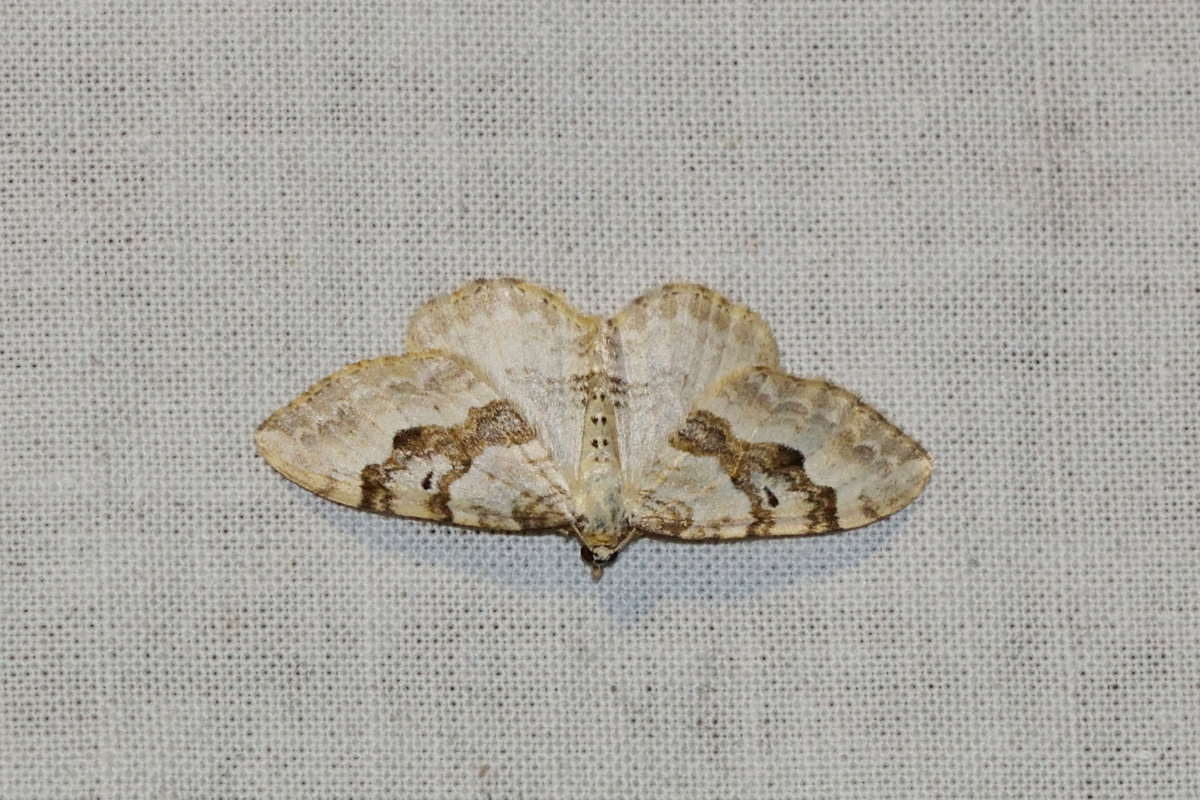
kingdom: Animalia
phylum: Arthropoda
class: Insecta
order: Lepidoptera
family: Geometridae
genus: Xanthorhoe
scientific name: Xanthorhoe montanata
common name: Silver-ground carpet
